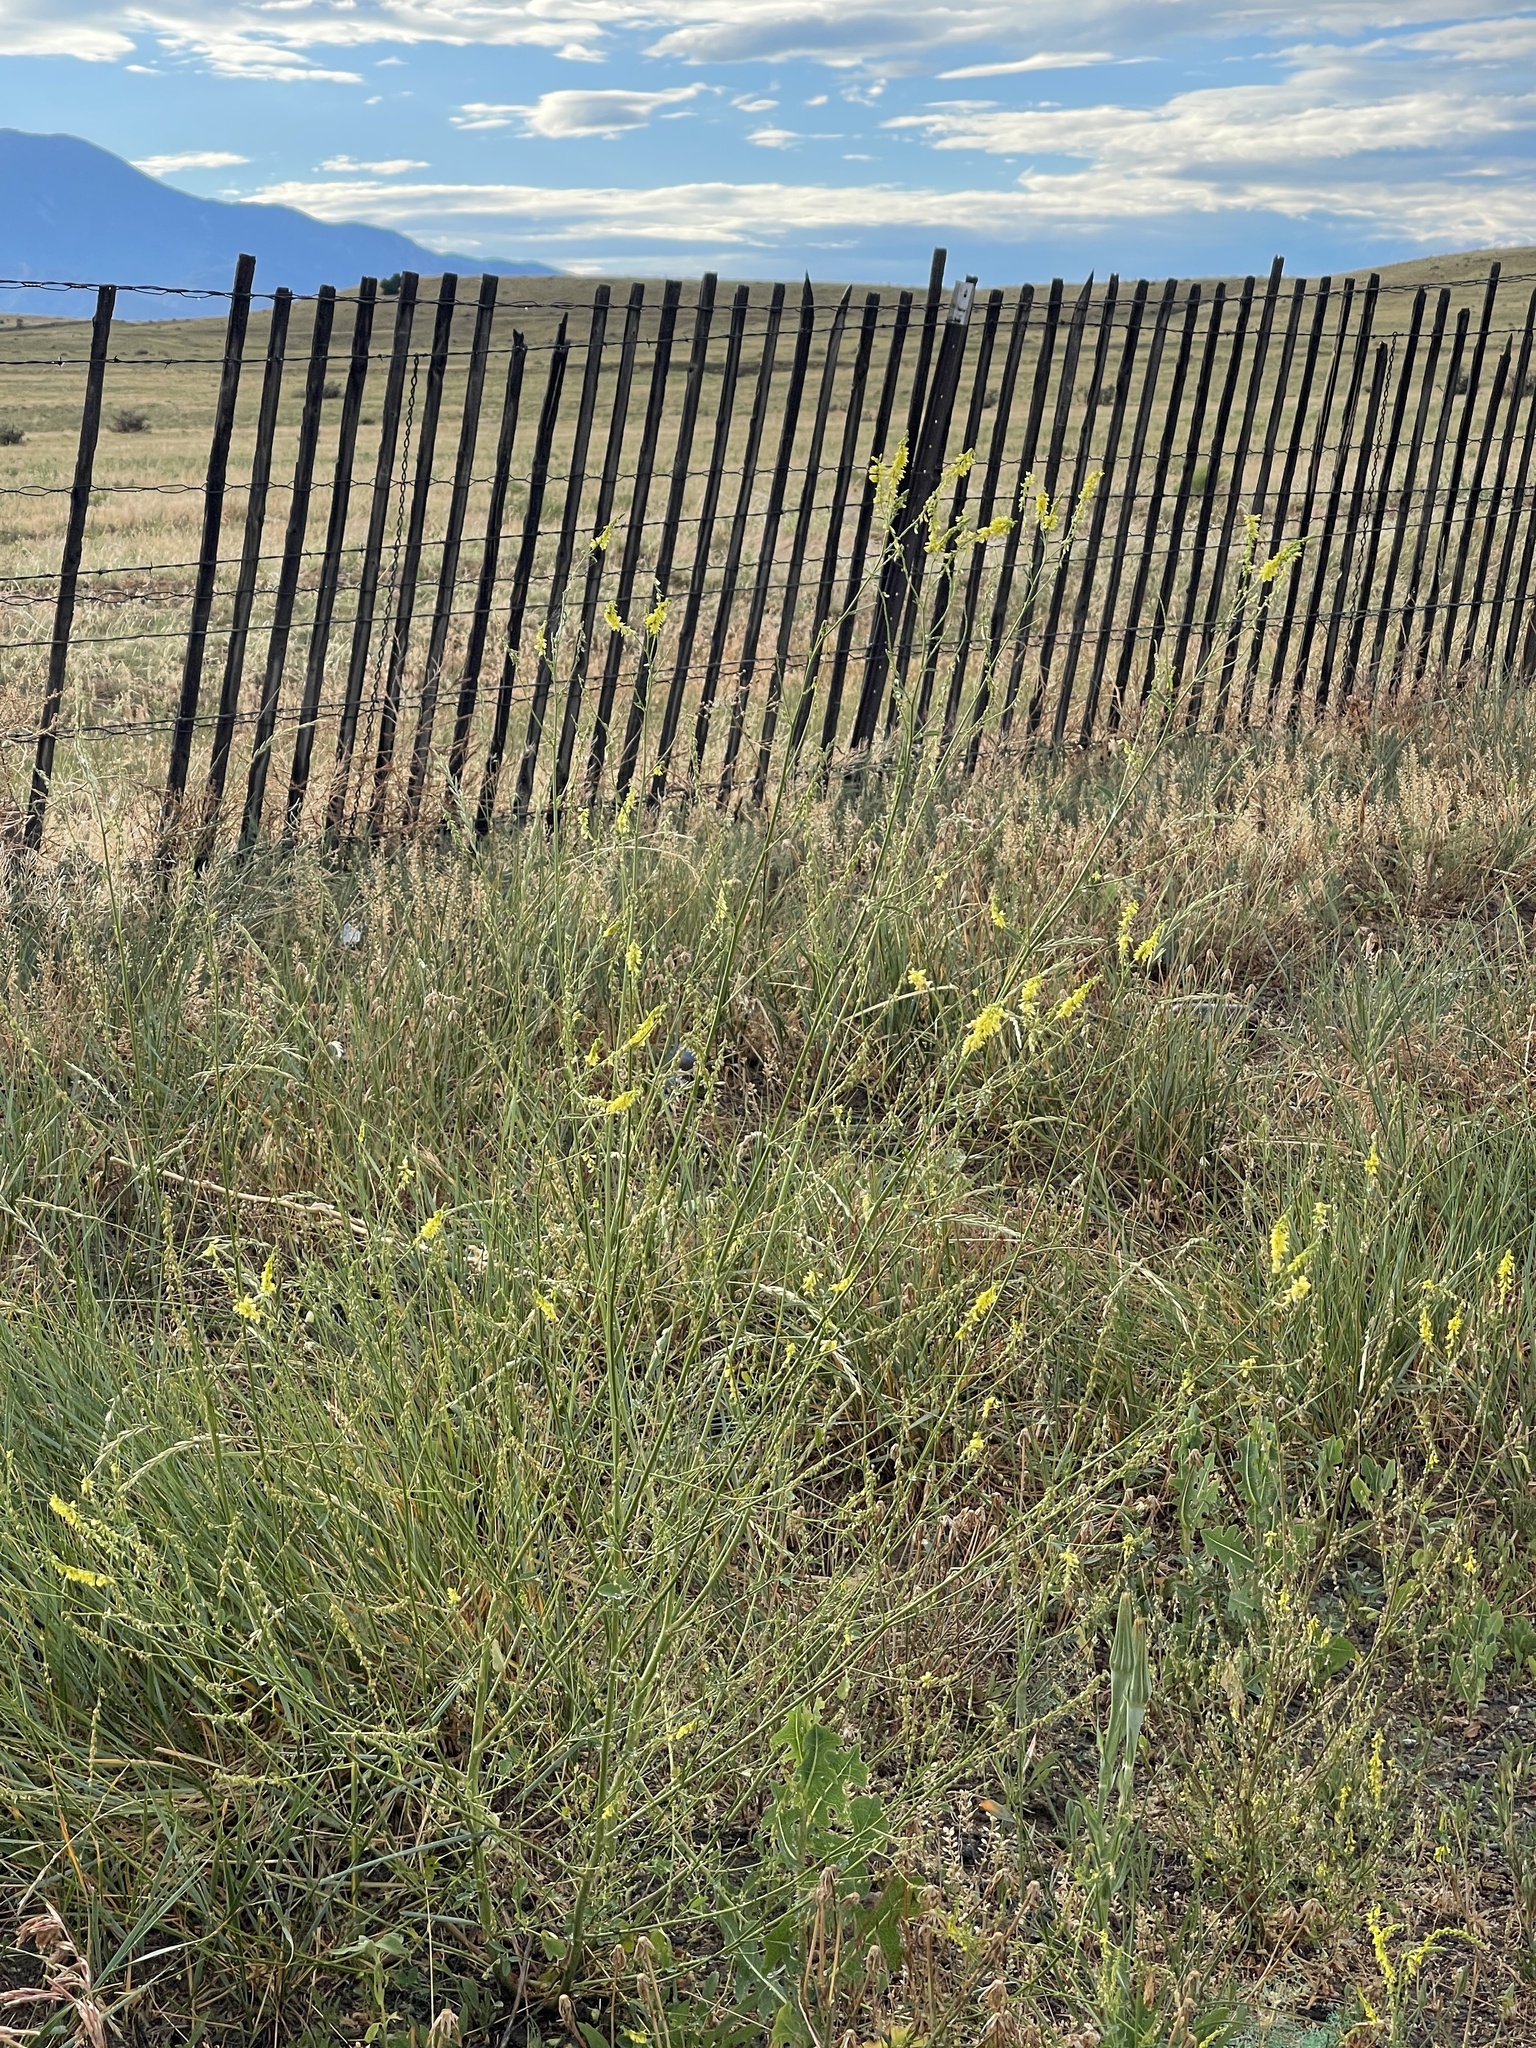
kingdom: Plantae
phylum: Tracheophyta
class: Magnoliopsida
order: Fabales
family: Fabaceae
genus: Melilotus
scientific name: Melilotus officinalis
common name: Sweetclover
